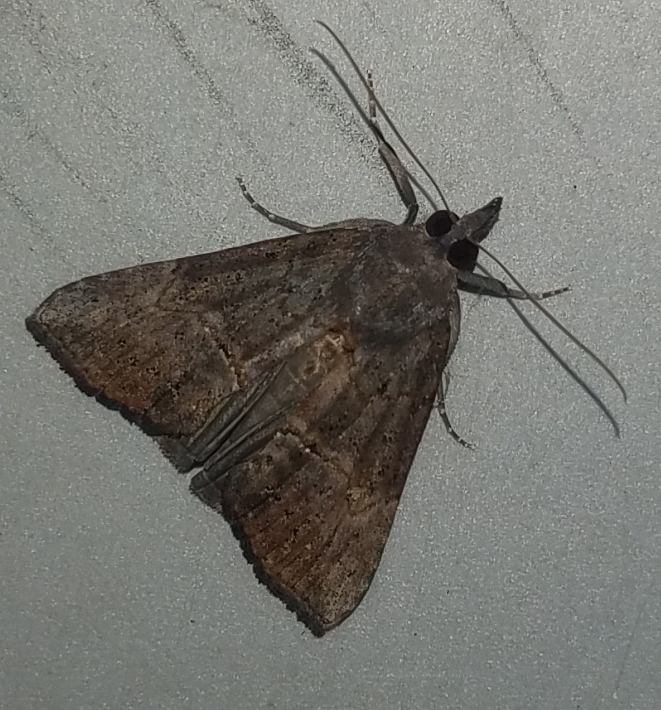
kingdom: Animalia
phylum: Arthropoda
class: Insecta
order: Lepidoptera
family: Erebidae
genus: Hypena
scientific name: Hypena scabra
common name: Green cloverworm
